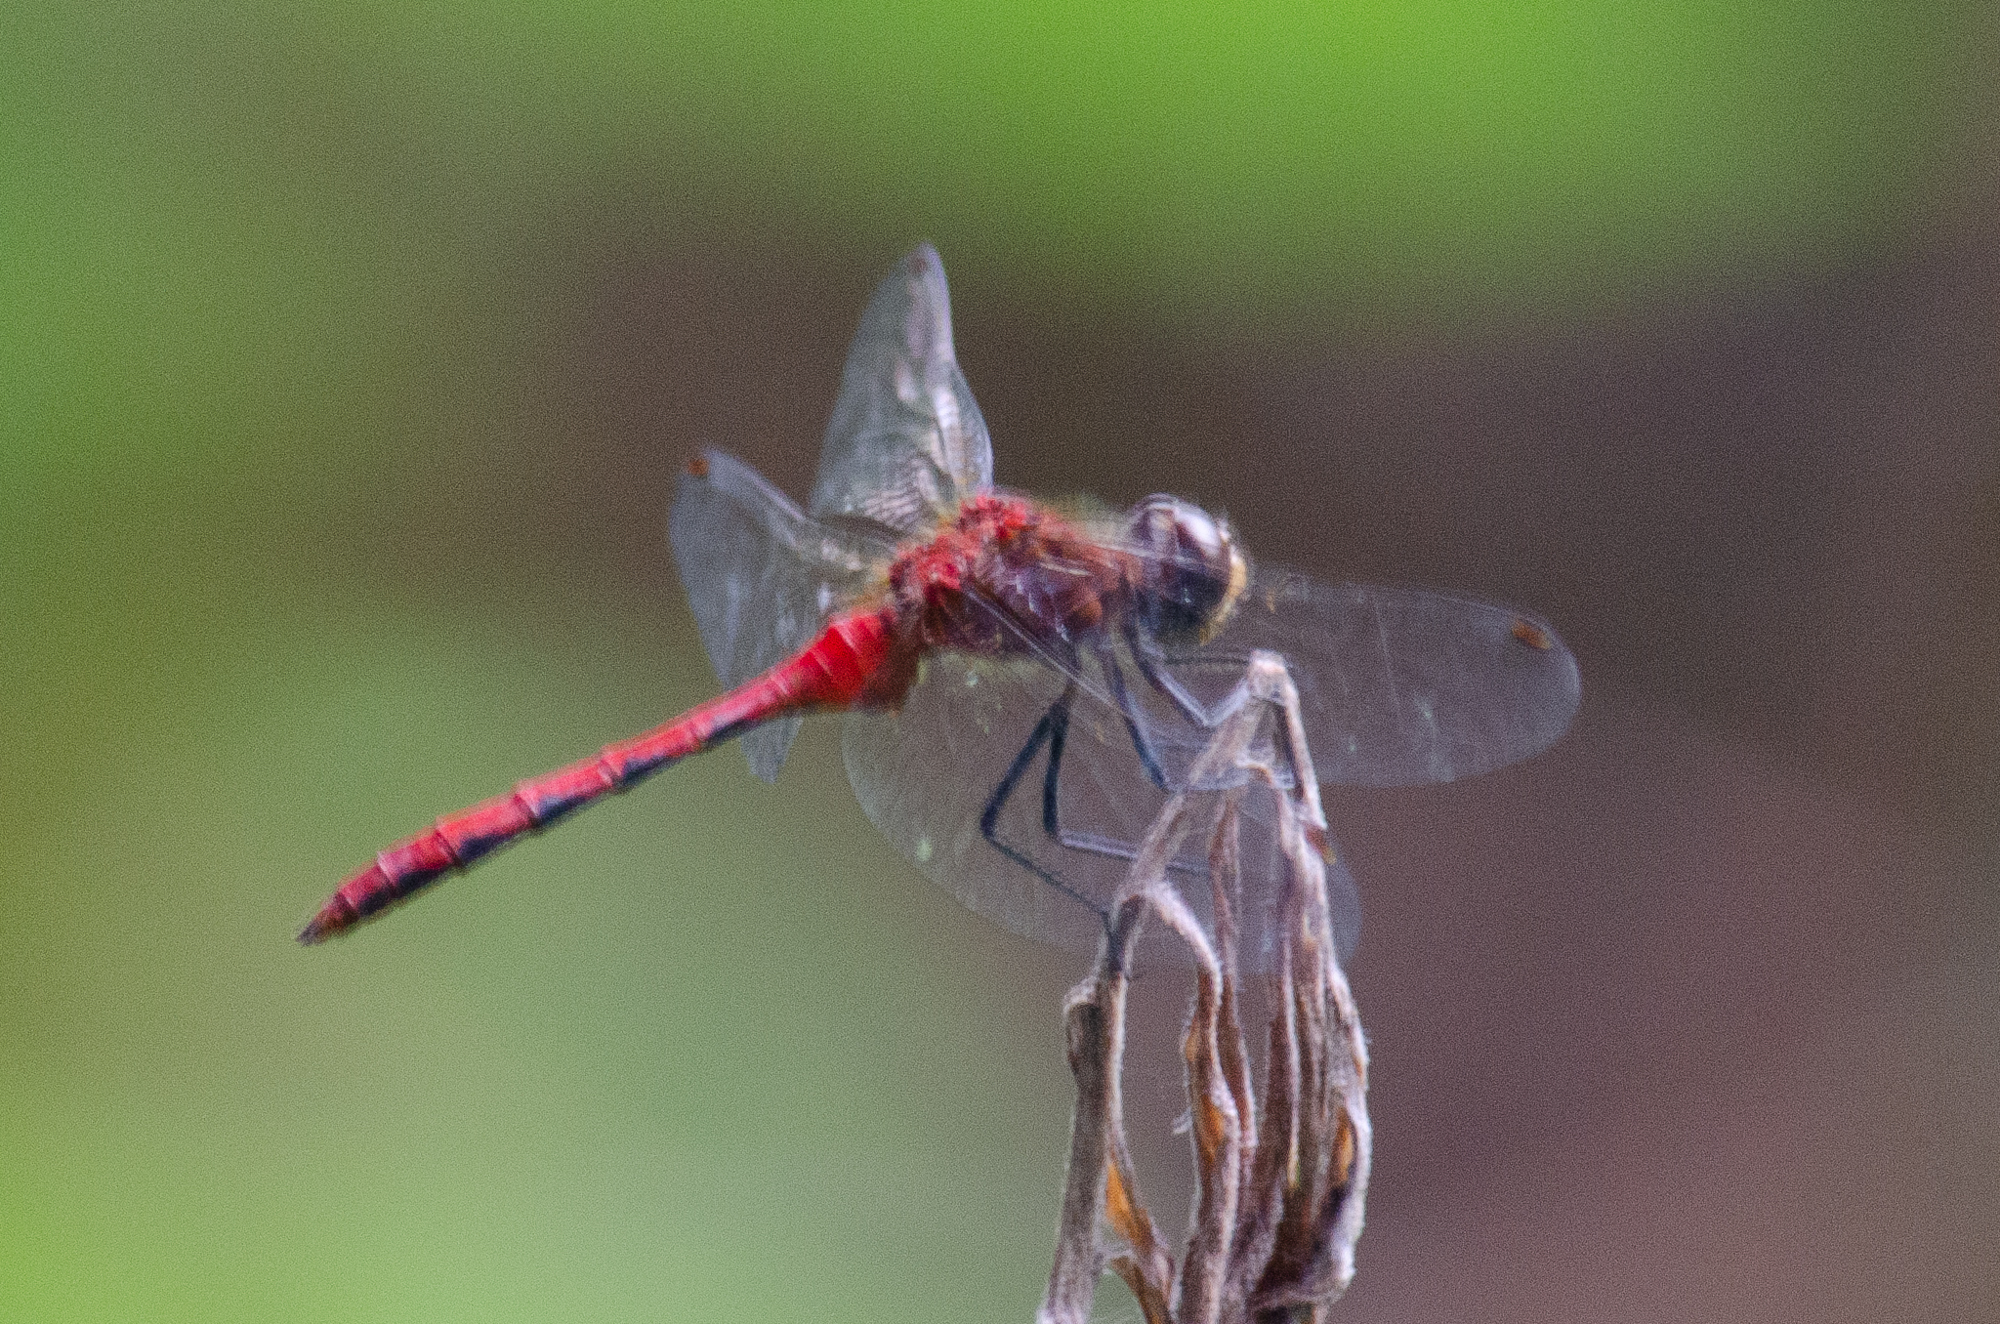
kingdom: Animalia
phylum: Arthropoda
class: Insecta
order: Odonata
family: Libellulidae
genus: Sympetrum
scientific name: Sympetrum
